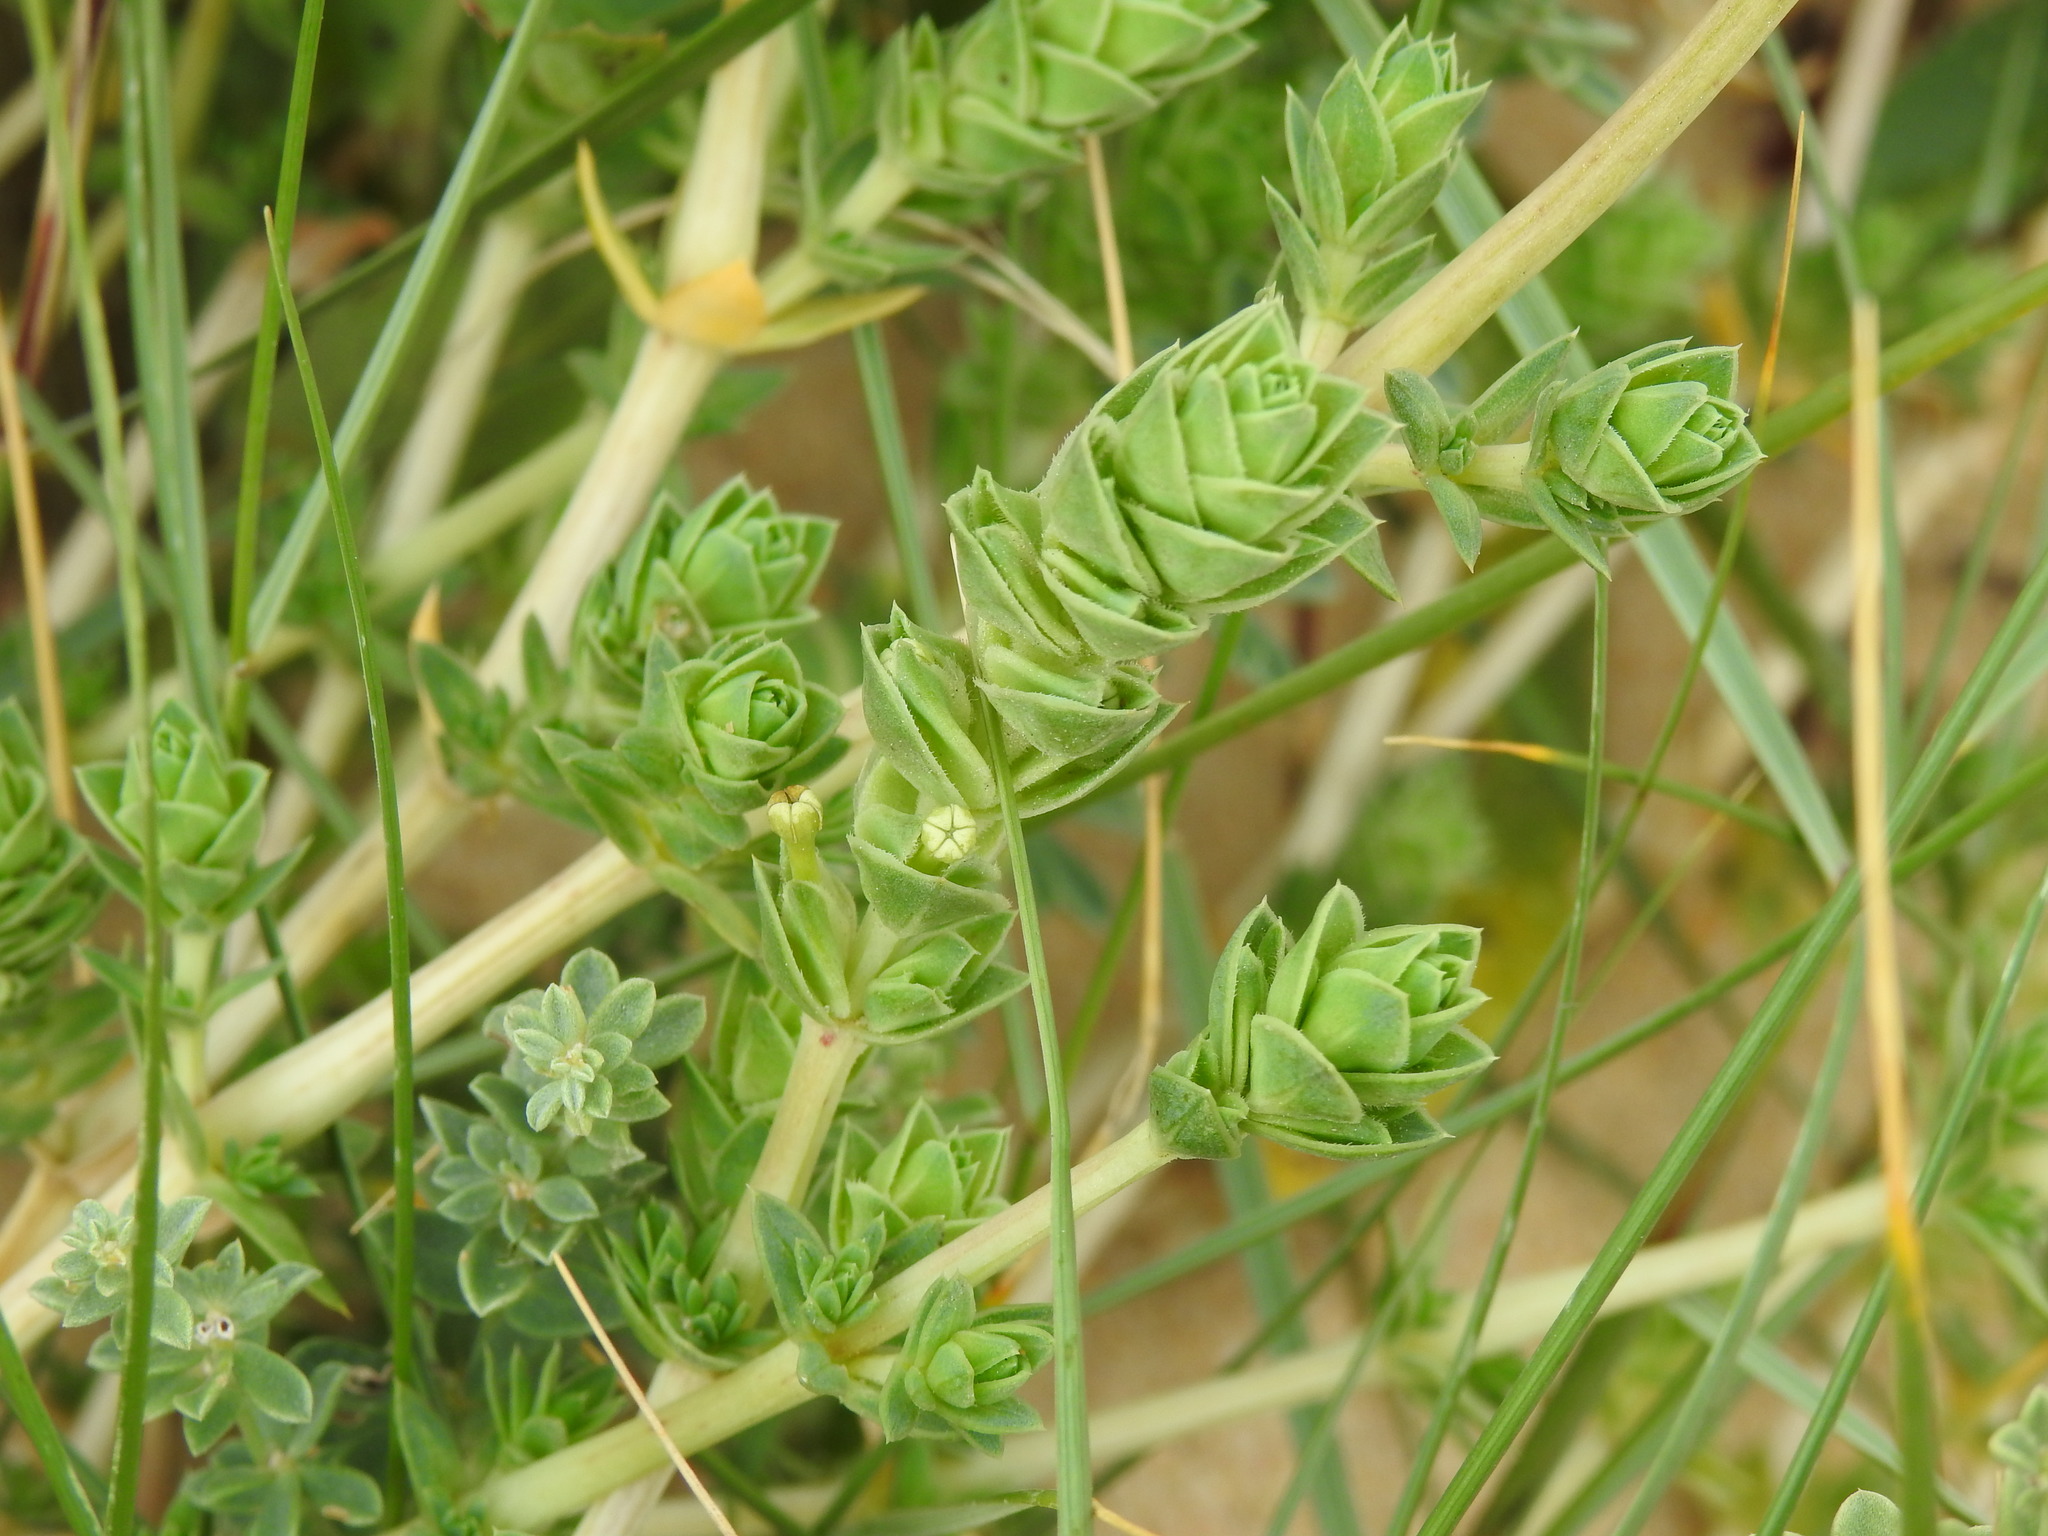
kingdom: Plantae
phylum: Tracheophyta
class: Magnoliopsida
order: Gentianales
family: Rubiaceae
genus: Crucianella
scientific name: Crucianella maritima
